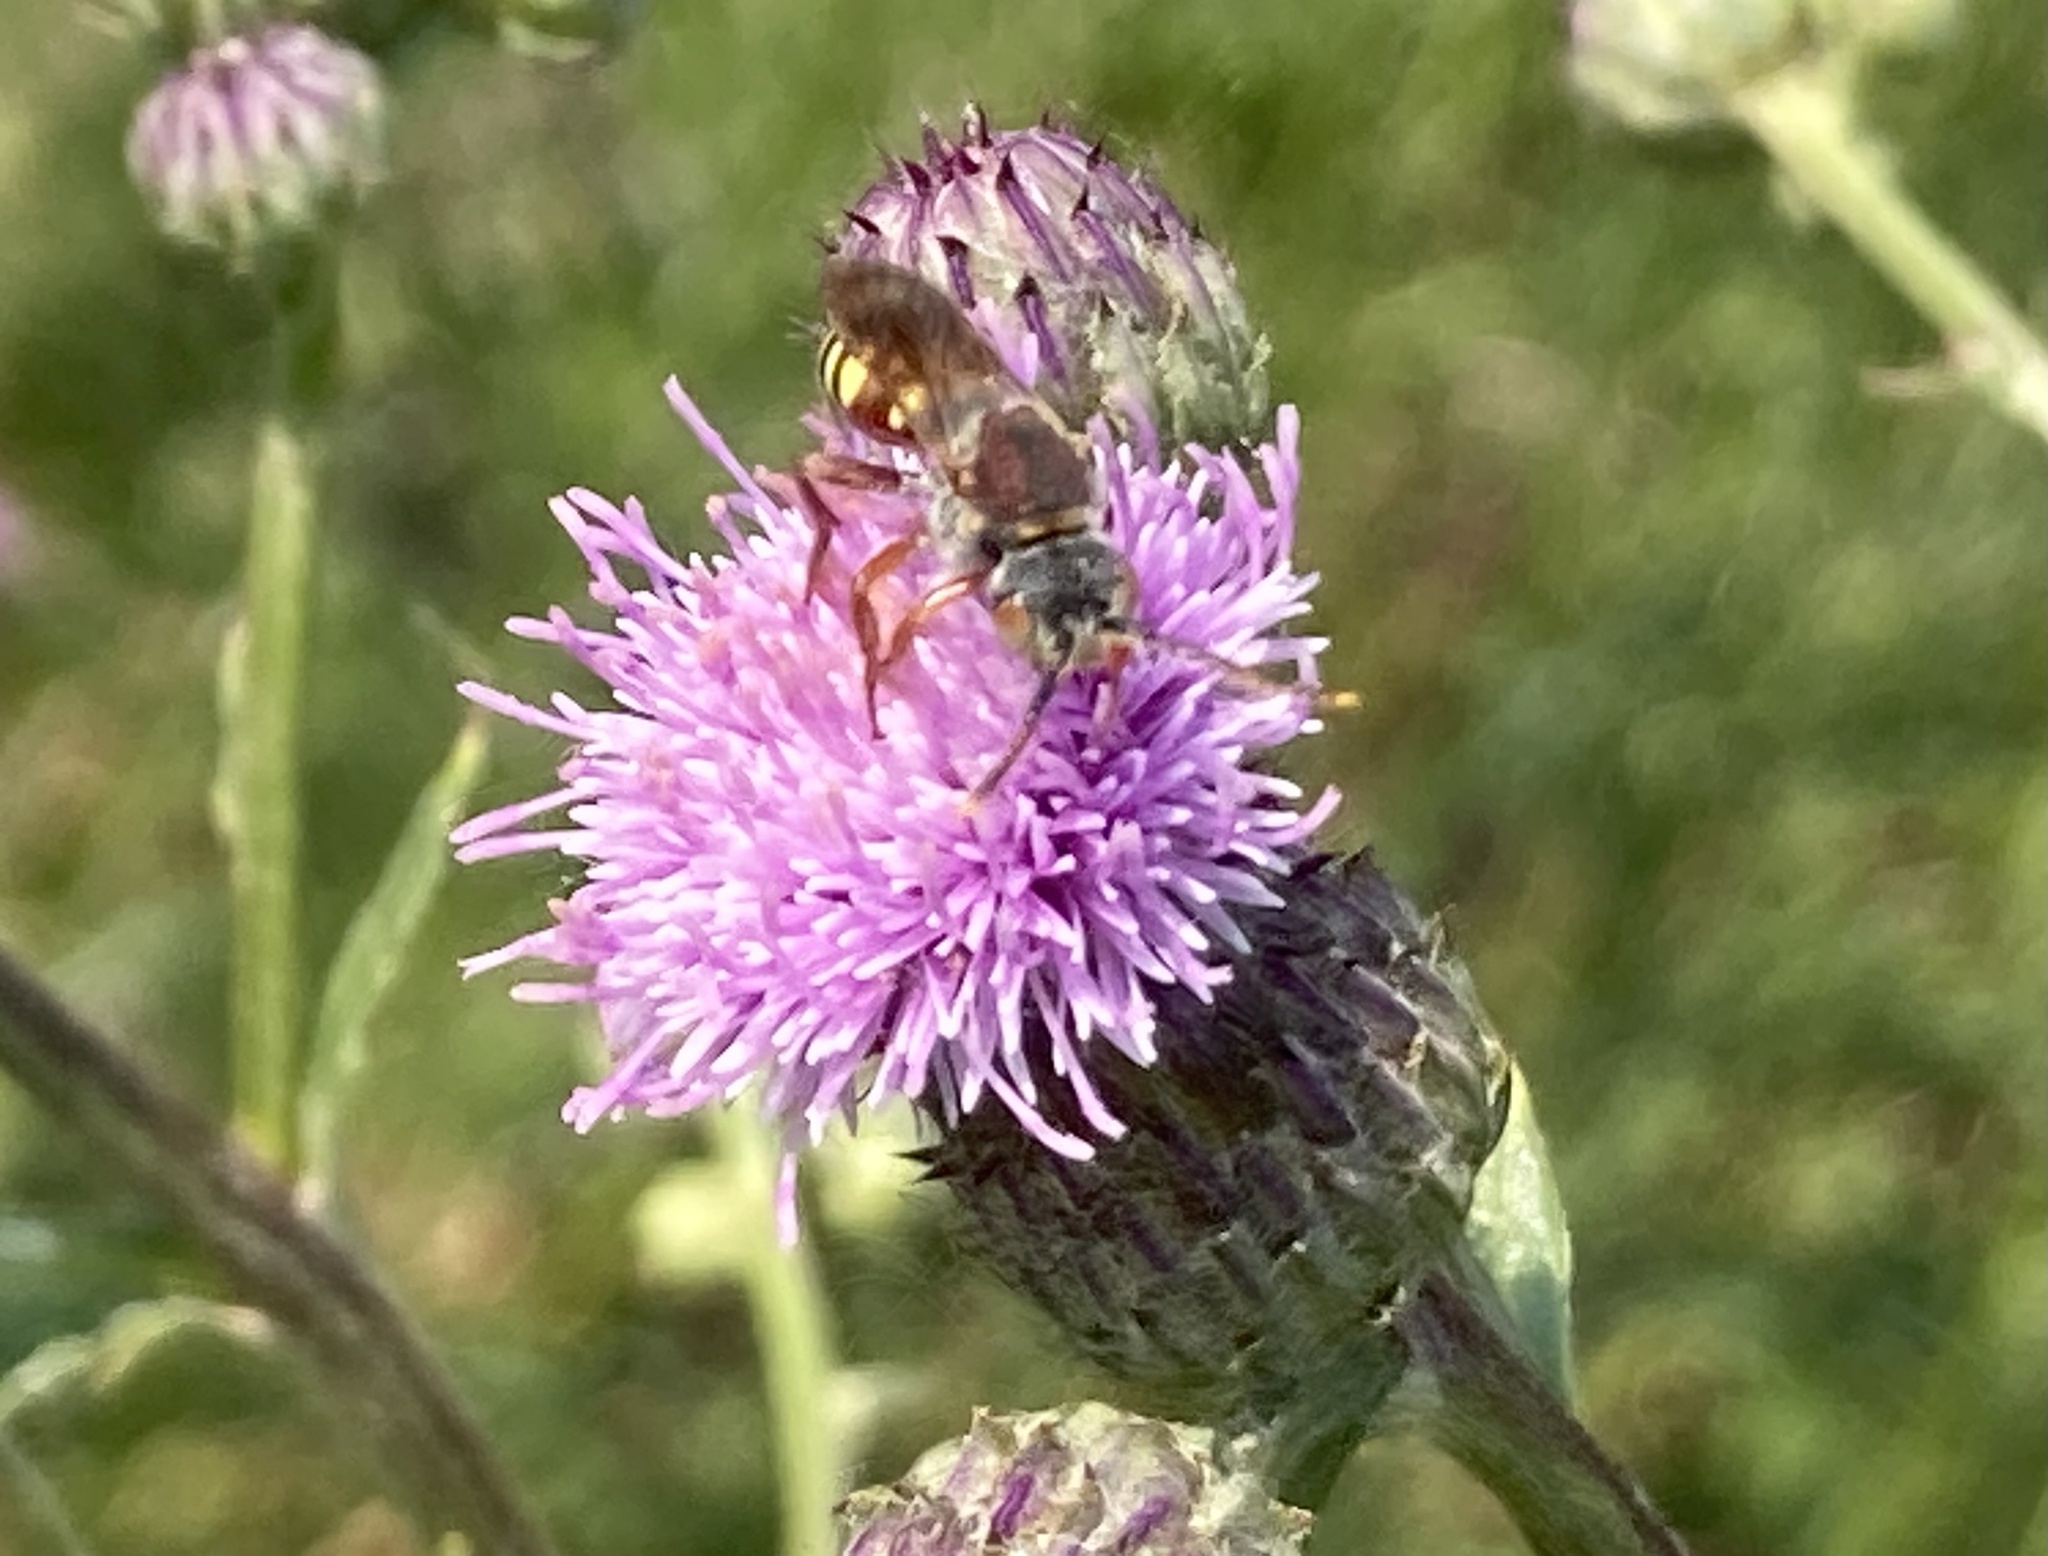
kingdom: Animalia
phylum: Arthropoda
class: Insecta
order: Hymenoptera
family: Apidae
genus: Nomada
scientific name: Nomada articulata
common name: Articulated nomad
